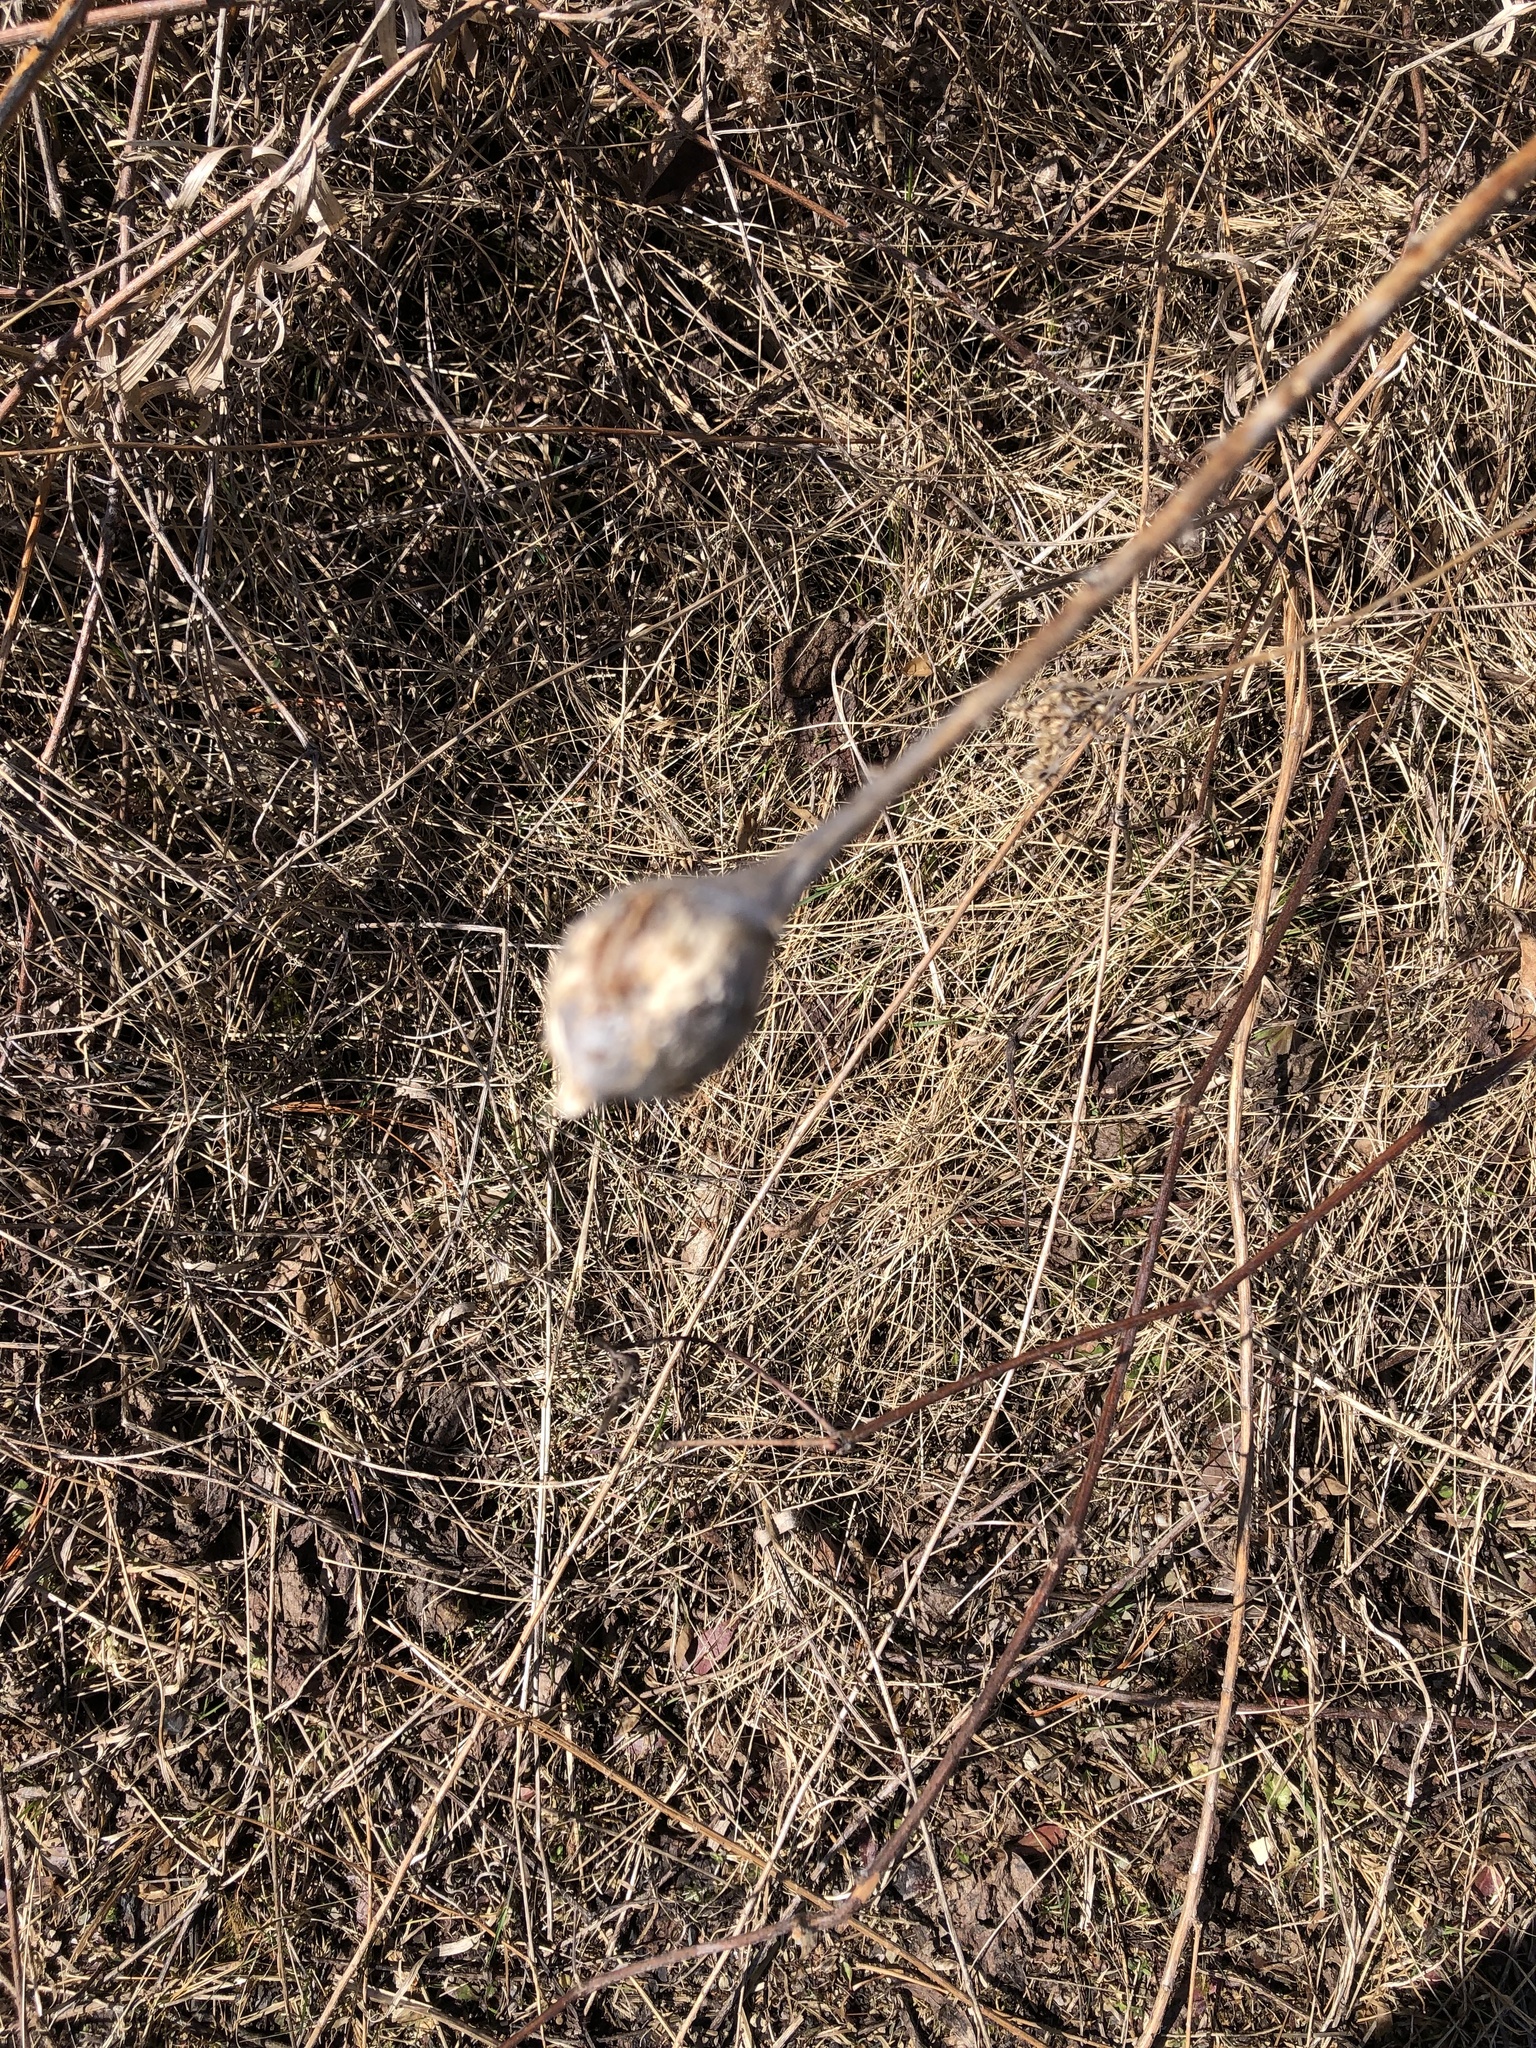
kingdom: Animalia
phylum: Arthropoda
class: Insecta
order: Diptera
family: Tephritidae
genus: Eurosta
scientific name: Eurosta solidaginis
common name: Goldenrod gall fly
